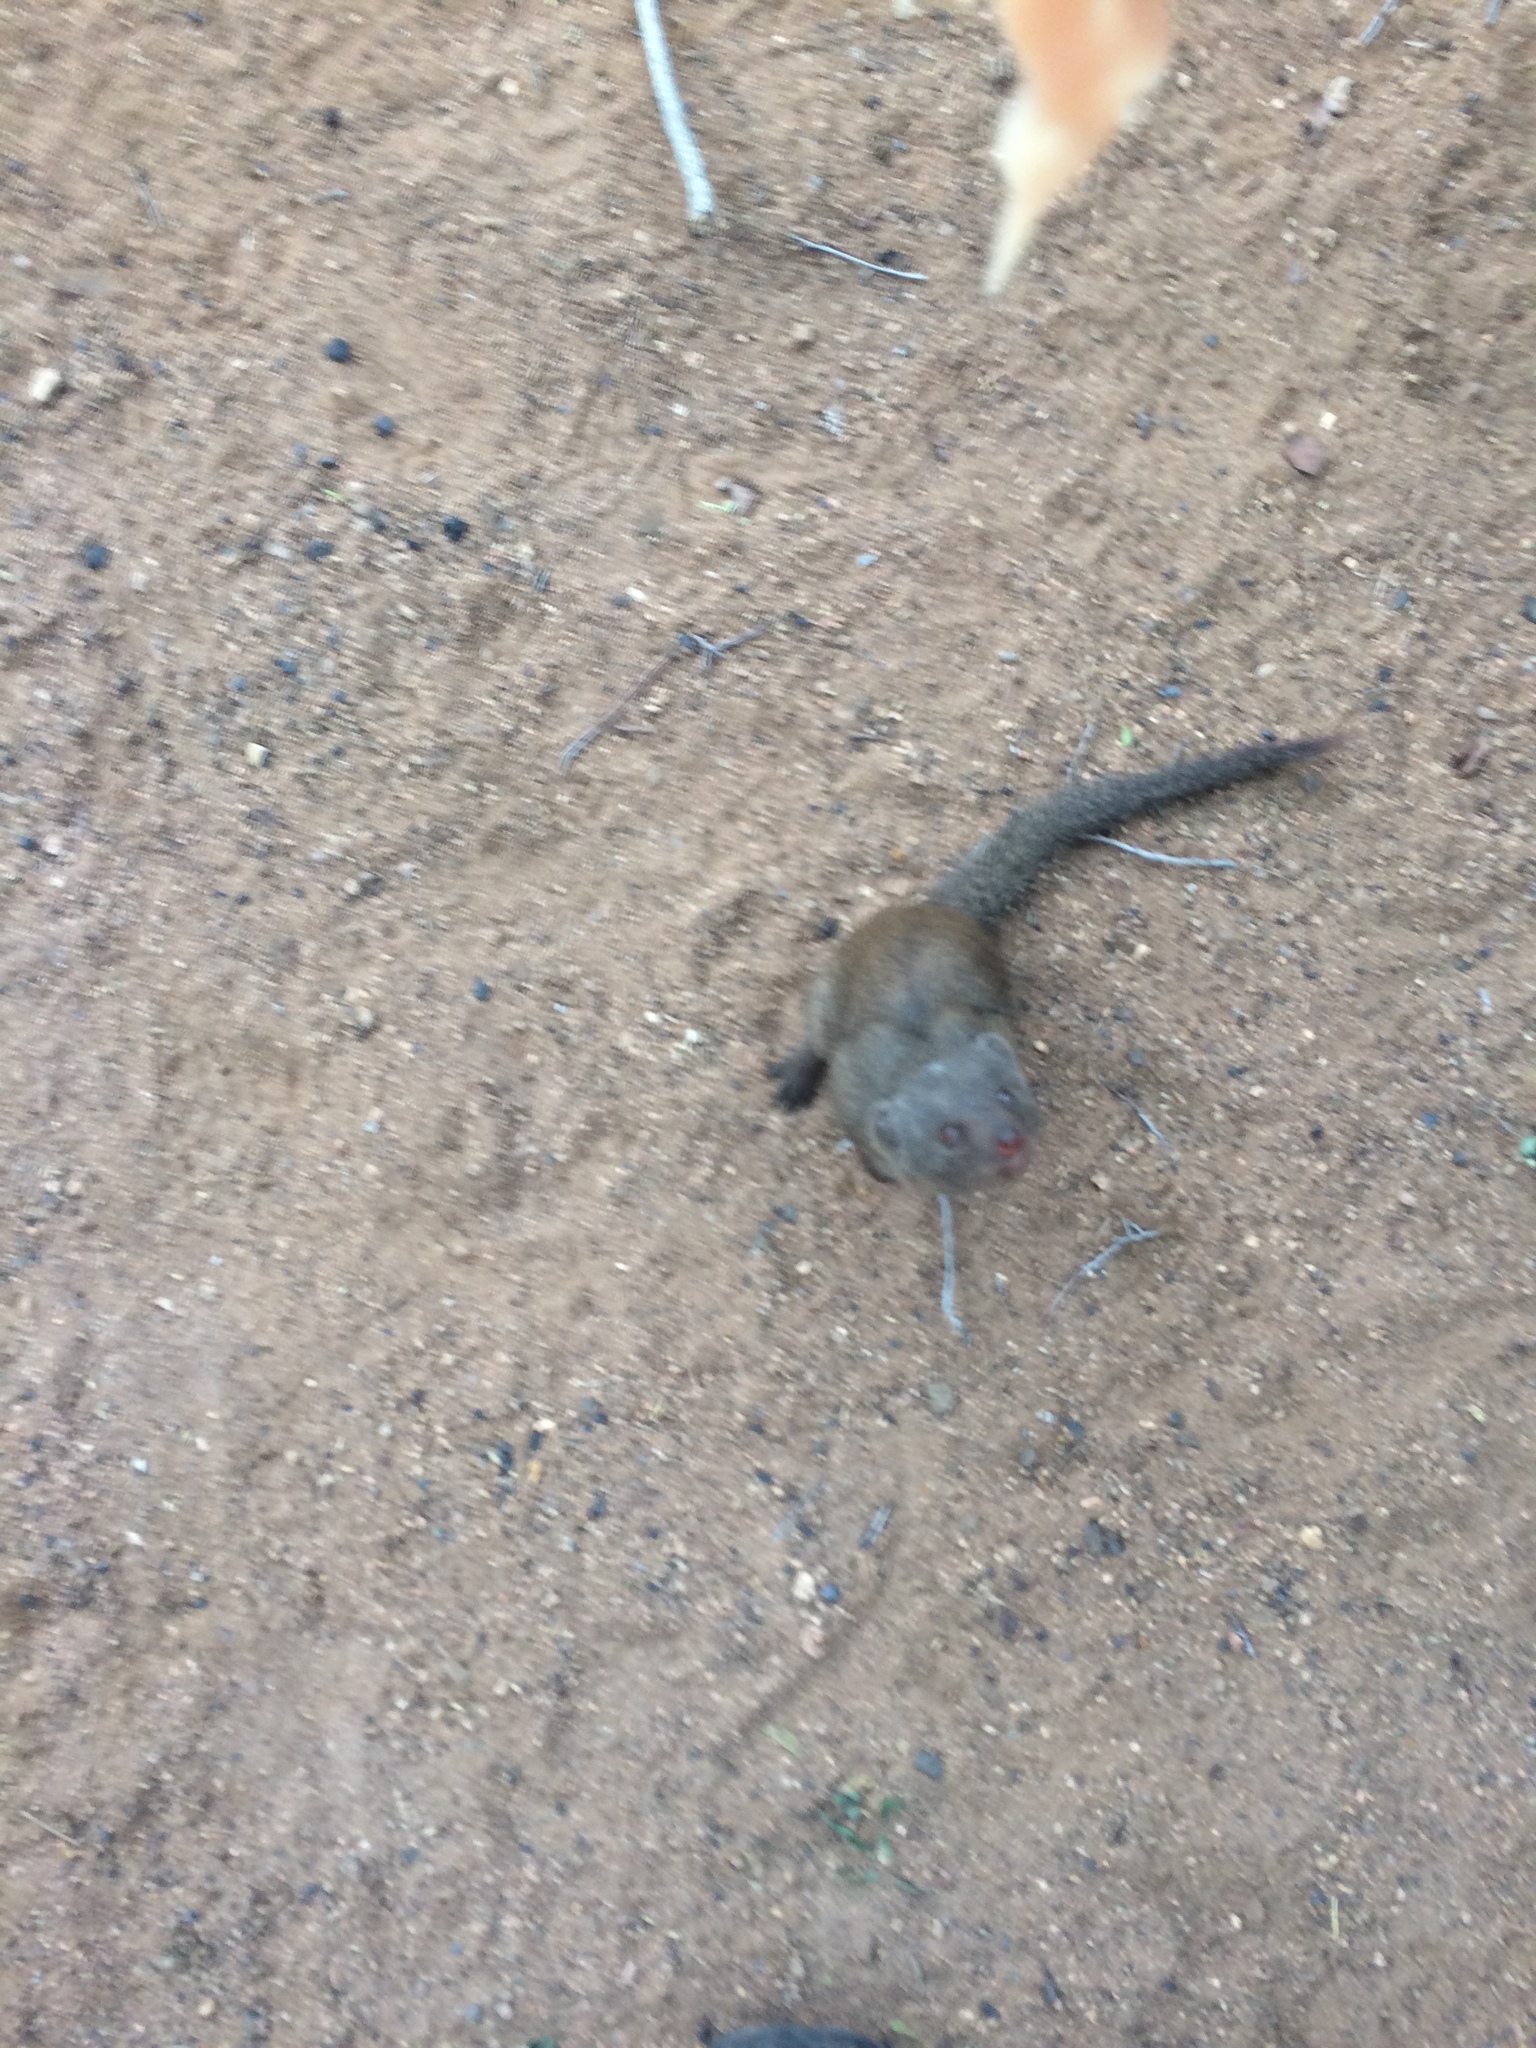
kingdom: Animalia
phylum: Chordata
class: Mammalia
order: Carnivora
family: Herpestidae
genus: Helogale
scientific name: Helogale parvula
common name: Common dwarf mongoose
